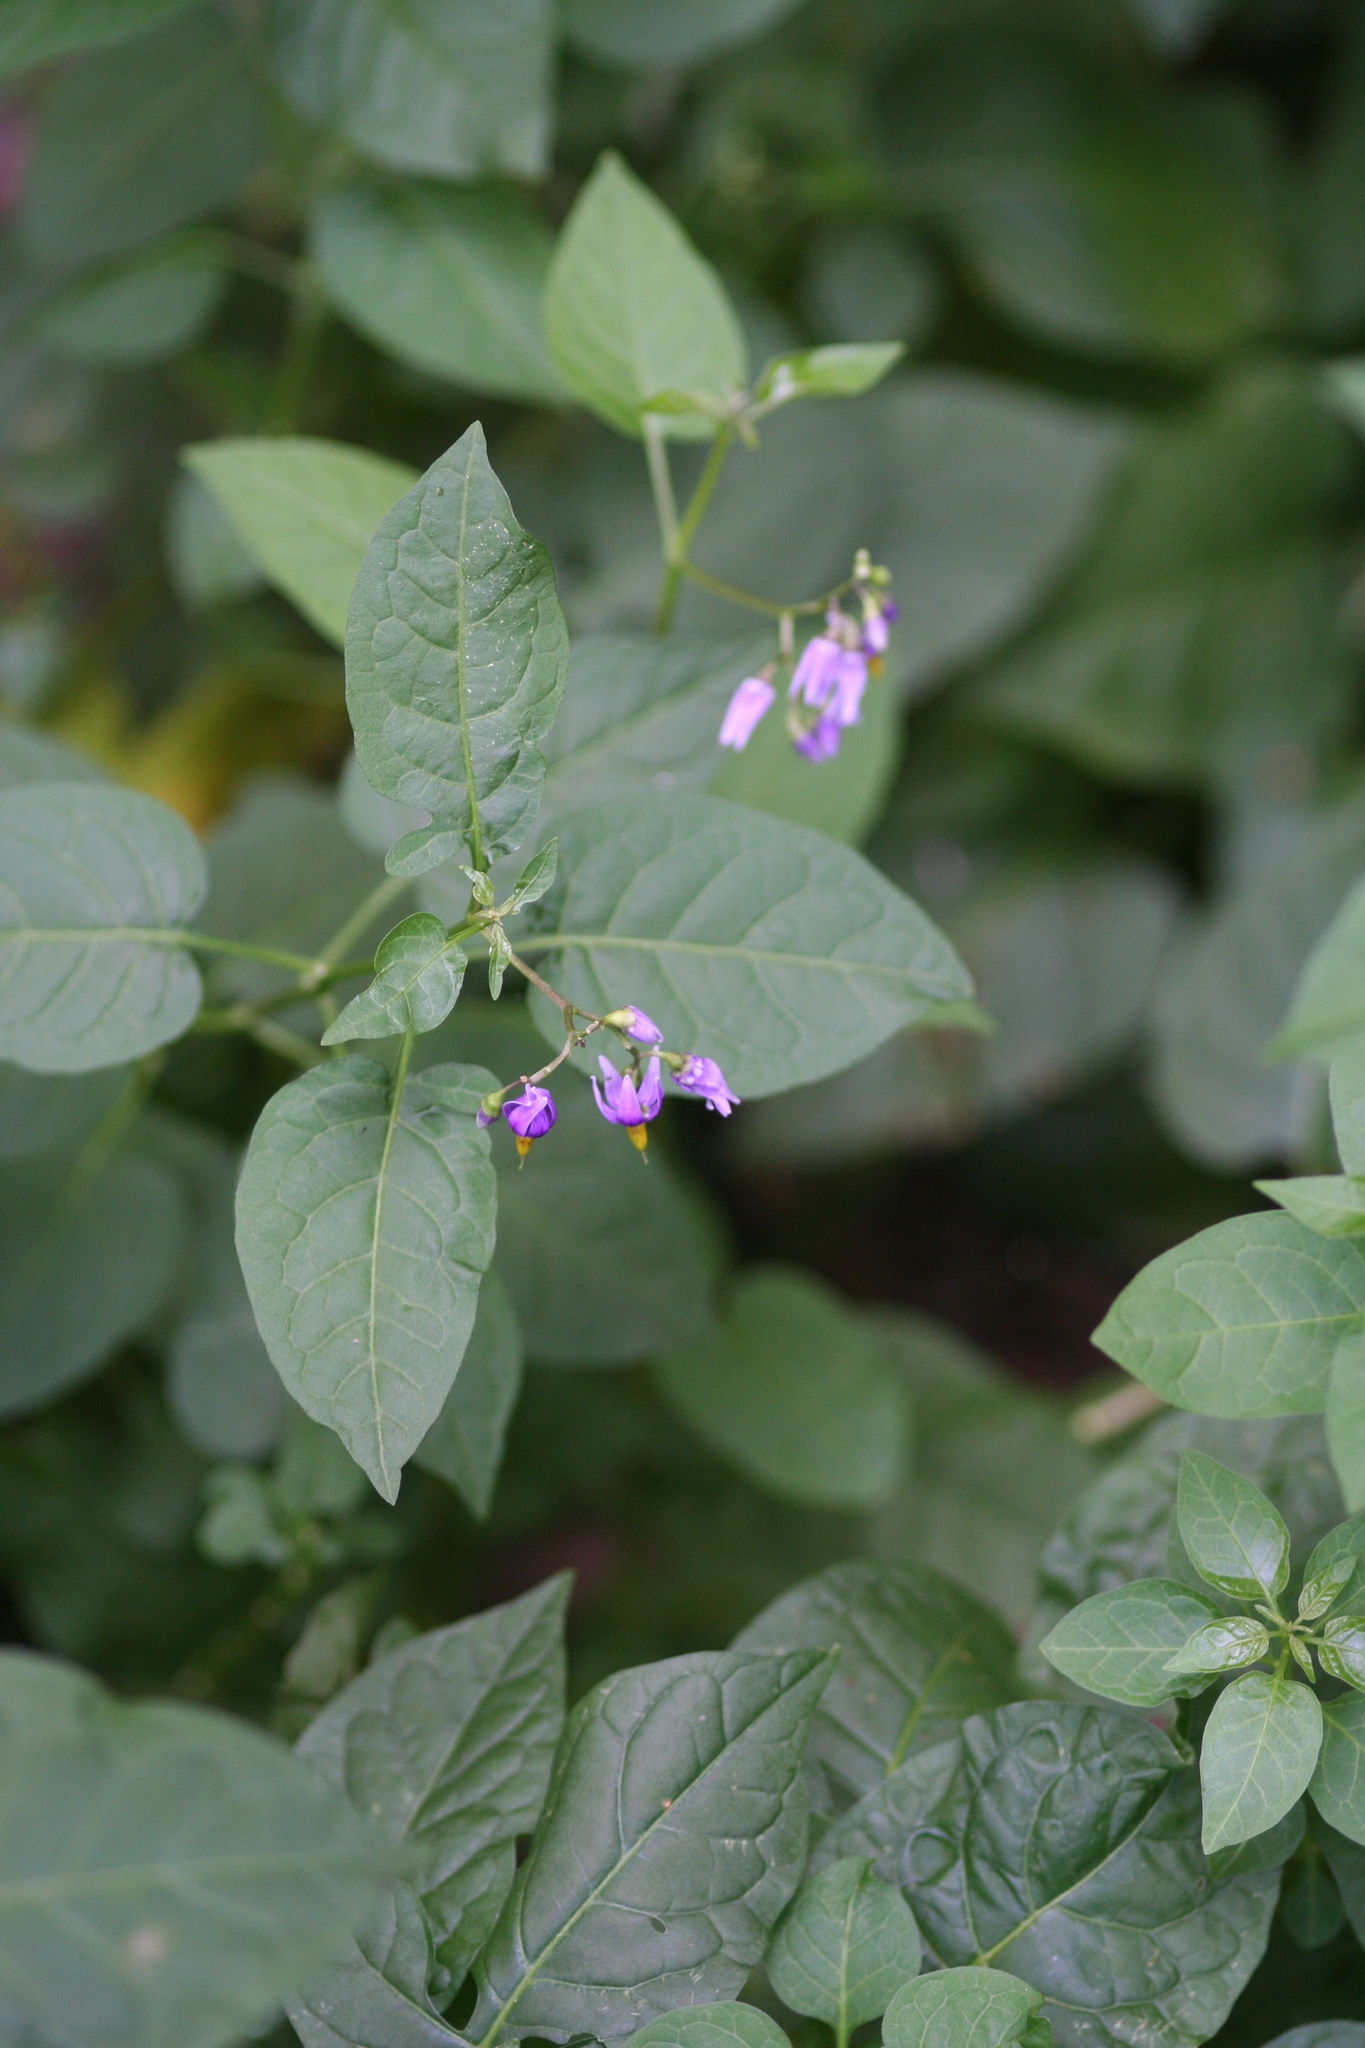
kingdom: Plantae
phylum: Tracheophyta
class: Magnoliopsida
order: Solanales
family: Solanaceae
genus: Solanum
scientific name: Solanum dulcamara
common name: Climbing nightshade
